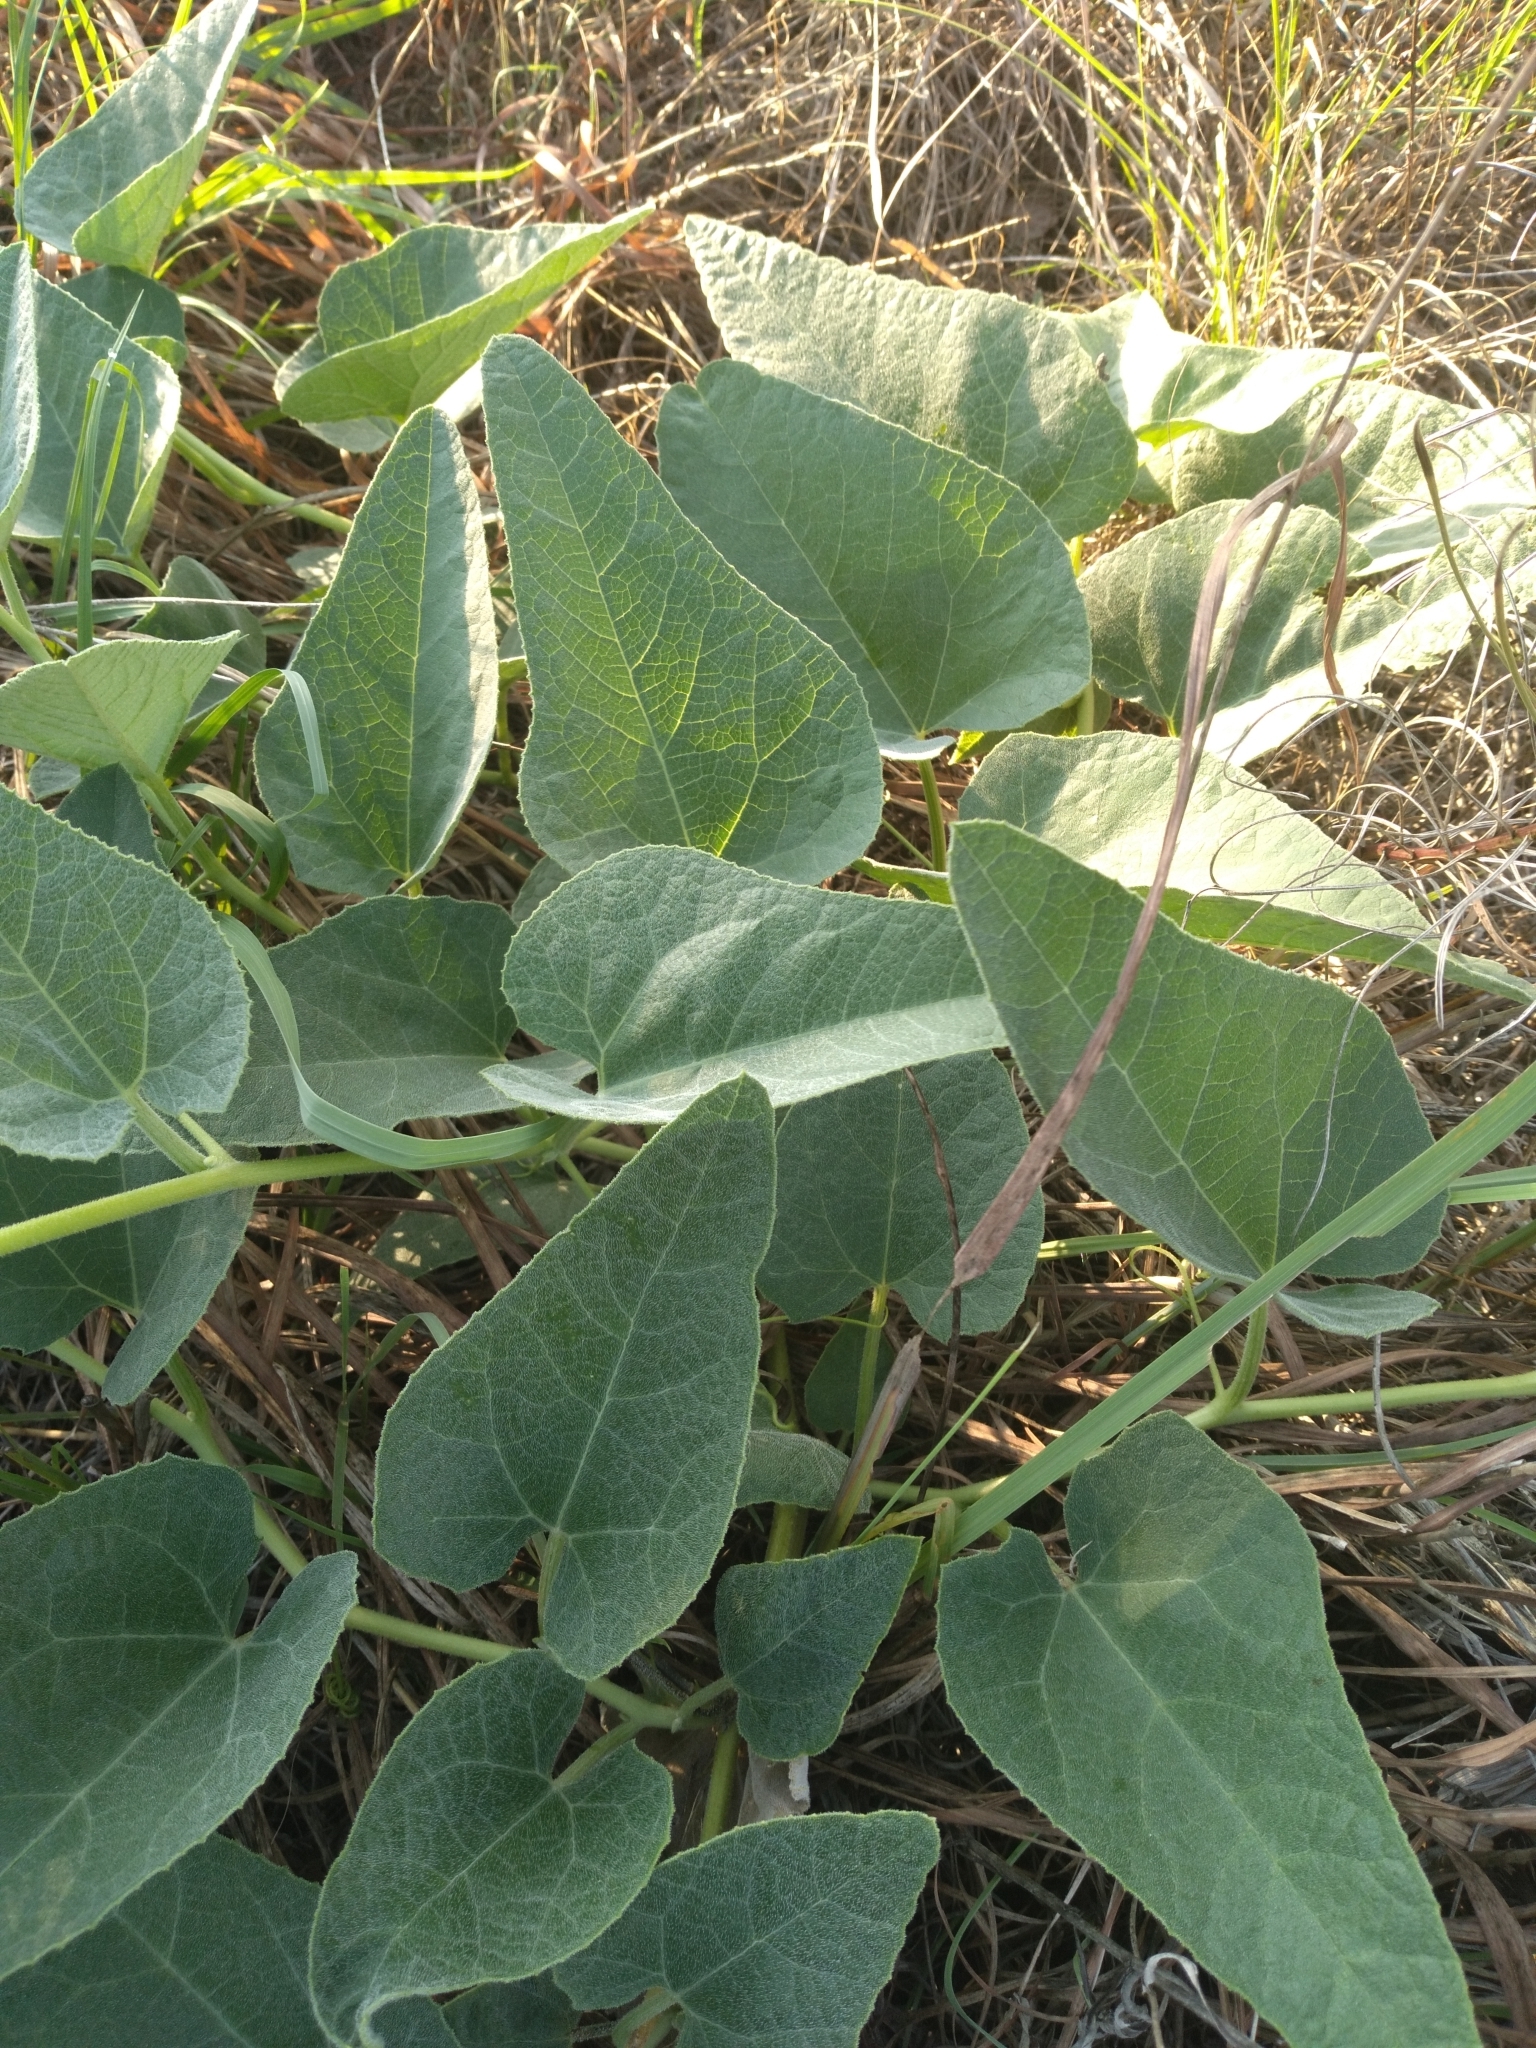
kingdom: Plantae
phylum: Tracheophyta
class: Magnoliopsida
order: Cucurbitales
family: Cucurbitaceae
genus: Cucurbita
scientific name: Cucurbita foetidissima
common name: Buffalo gourd
